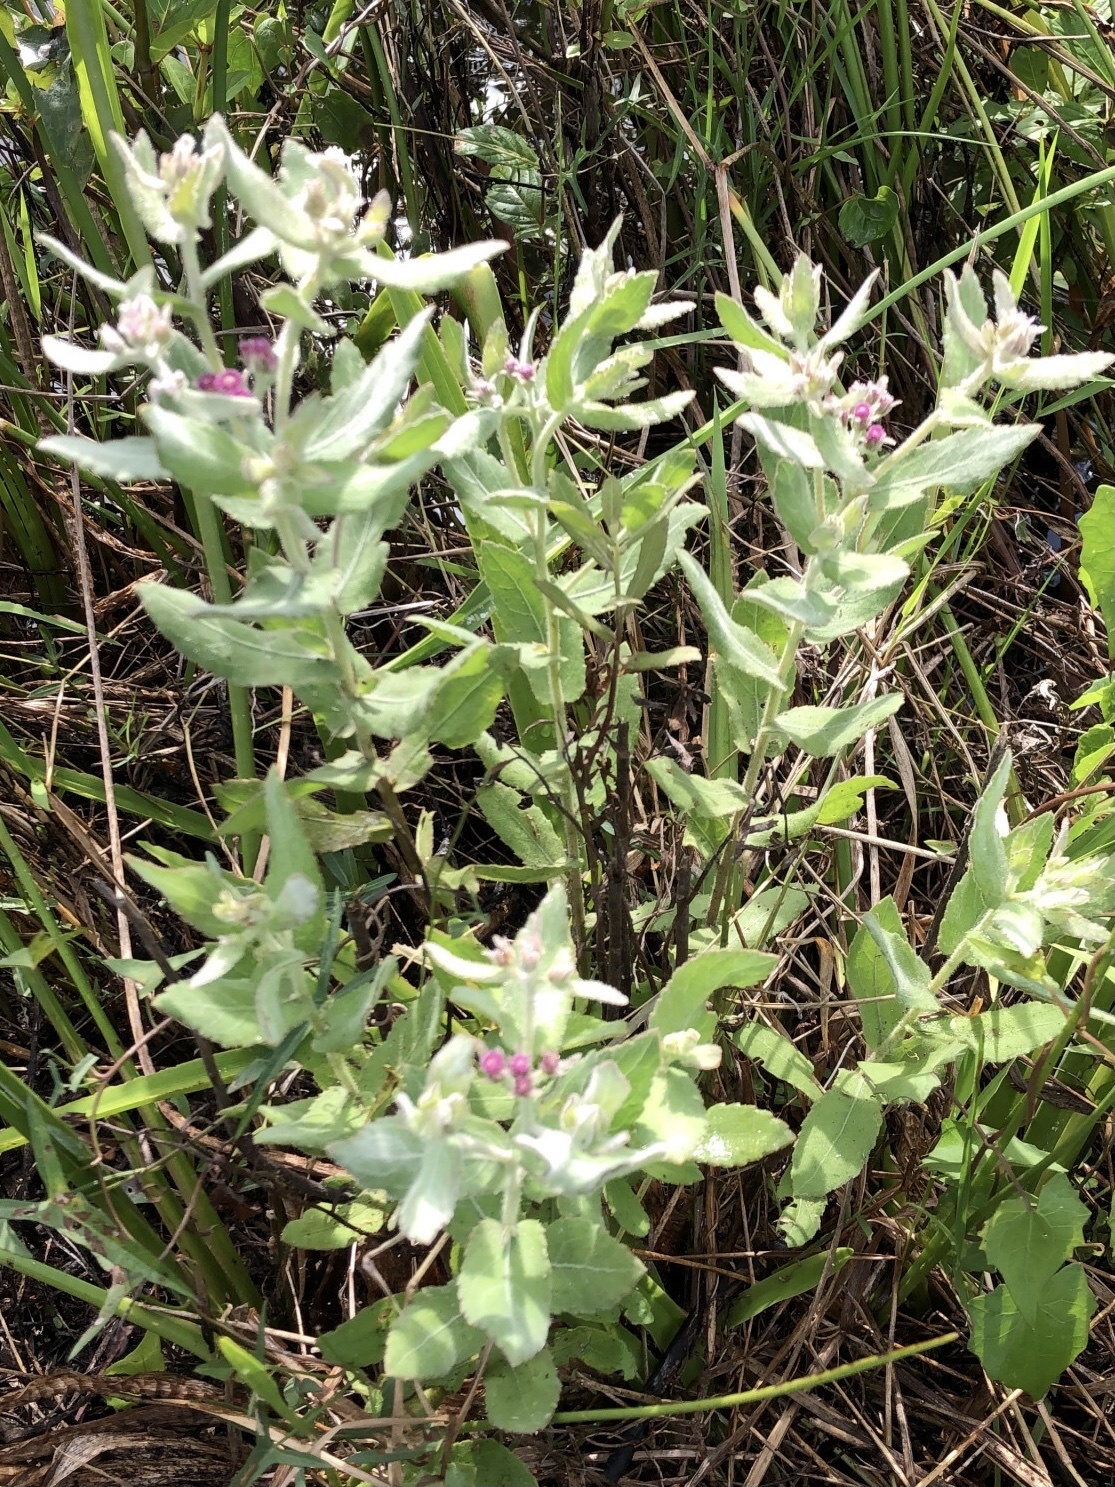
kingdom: Plantae
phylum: Tracheophyta
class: Magnoliopsida
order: Asterales
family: Asteraceae
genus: Pluchea
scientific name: Pluchea baccharis
